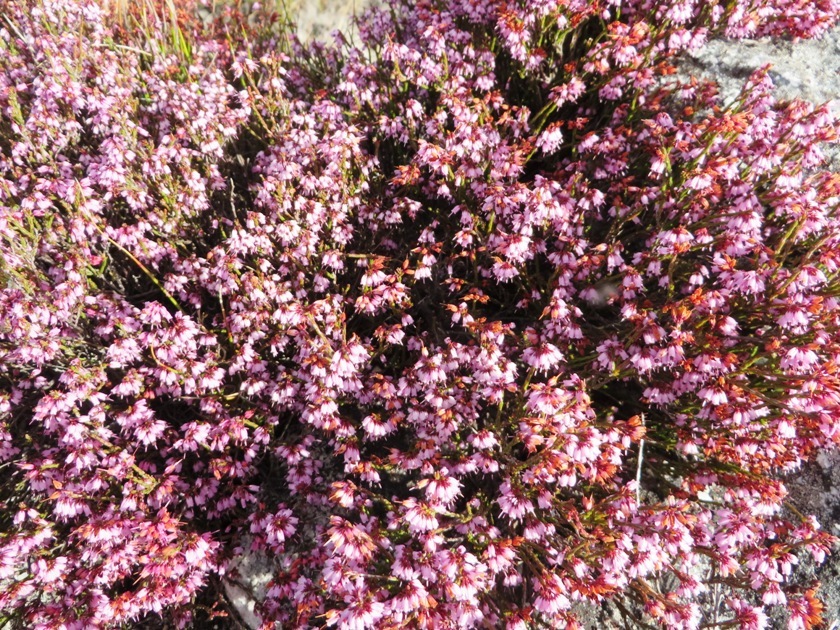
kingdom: Plantae
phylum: Tracheophyta
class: Magnoliopsida
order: Ericales
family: Ericaceae
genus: Erica
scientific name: Erica equisetifolia
